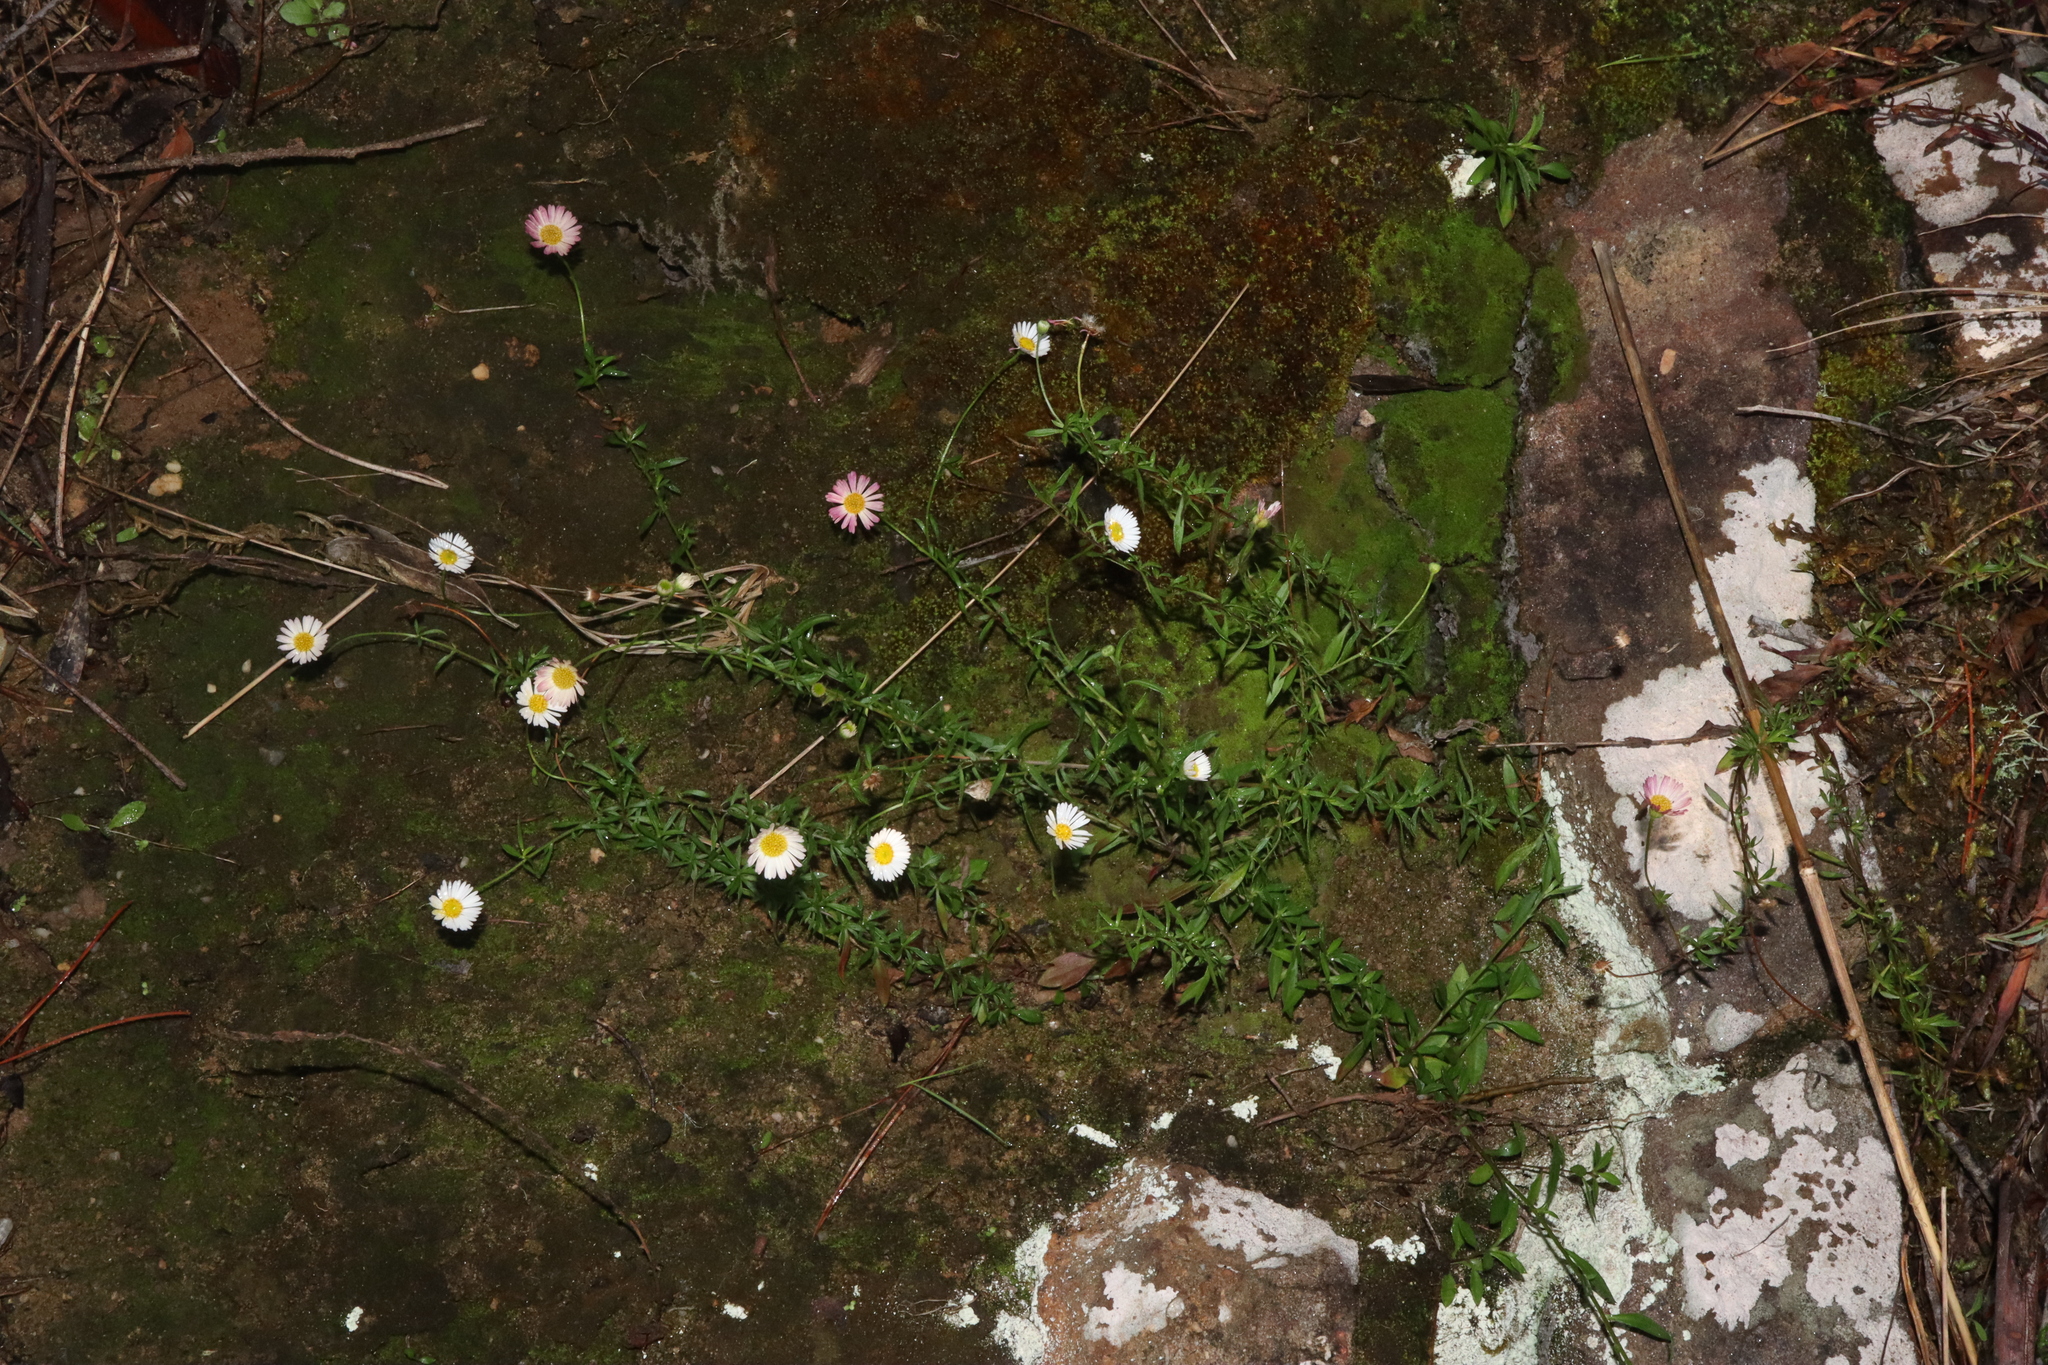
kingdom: Plantae
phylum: Tracheophyta
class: Magnoliopsida
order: Asterales
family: Asteraceae
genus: Erigeron
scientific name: Erigeron karvinskianus
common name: Mexican fleabane
